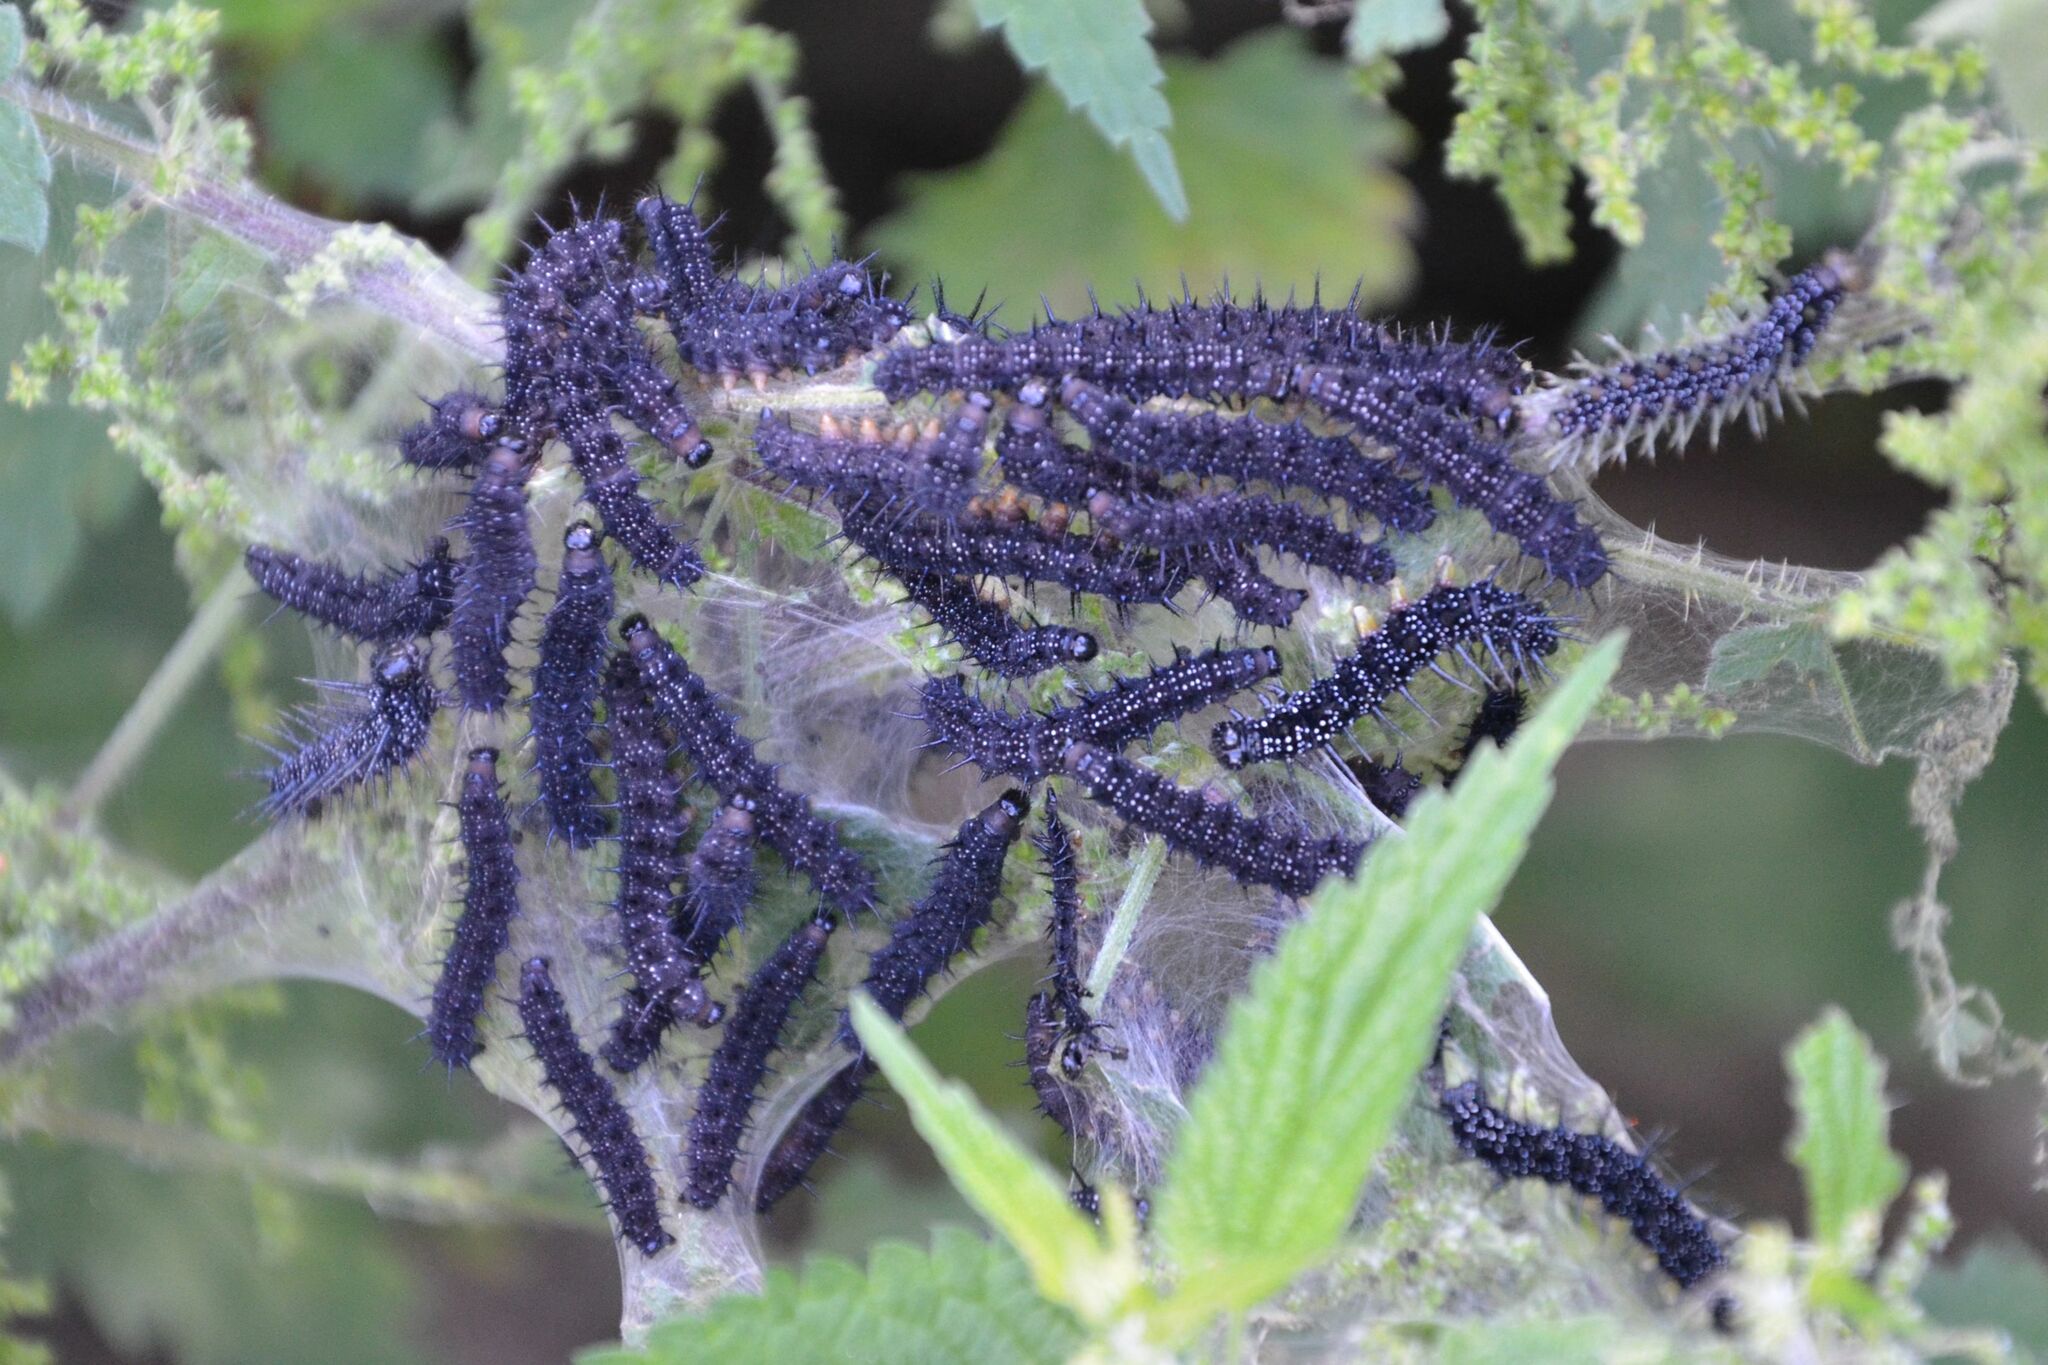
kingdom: Animalia
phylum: Arthropoda
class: Insecta
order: Lepidoptera
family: Nymphalidae
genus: Aglais
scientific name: Aglais io
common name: Peacock
